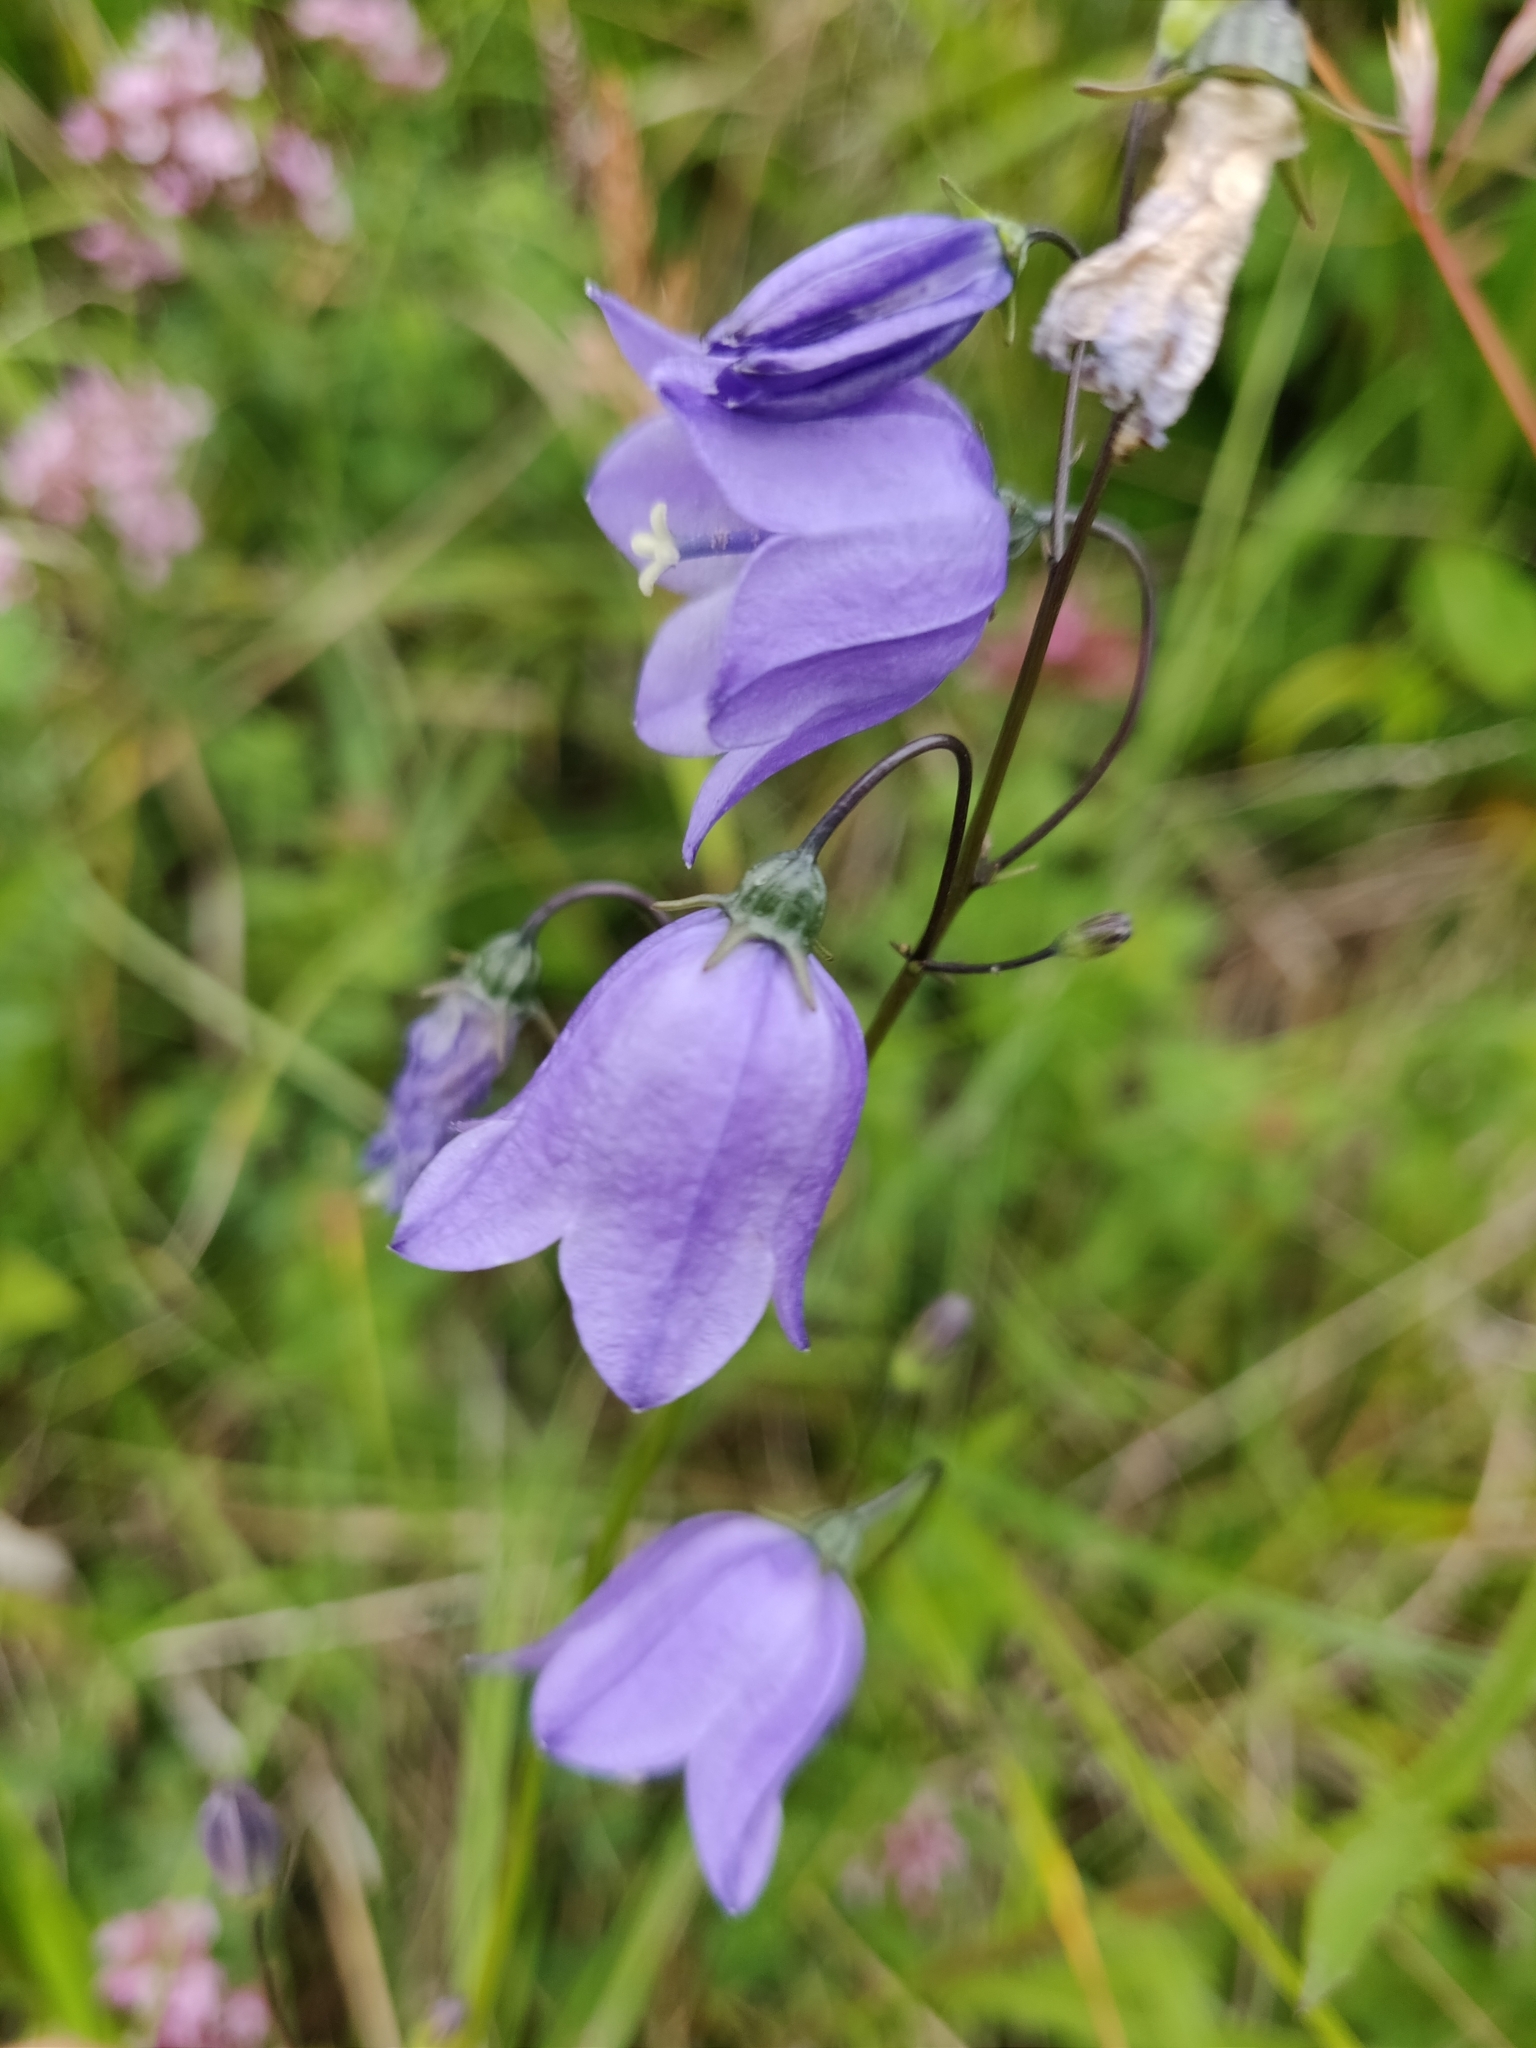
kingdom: Plantae
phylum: Tracheophyta
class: Magnoliopsida
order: Asterales
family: Campanulaceae
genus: Campanula
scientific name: Campanula rotundifolia
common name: Harebell
